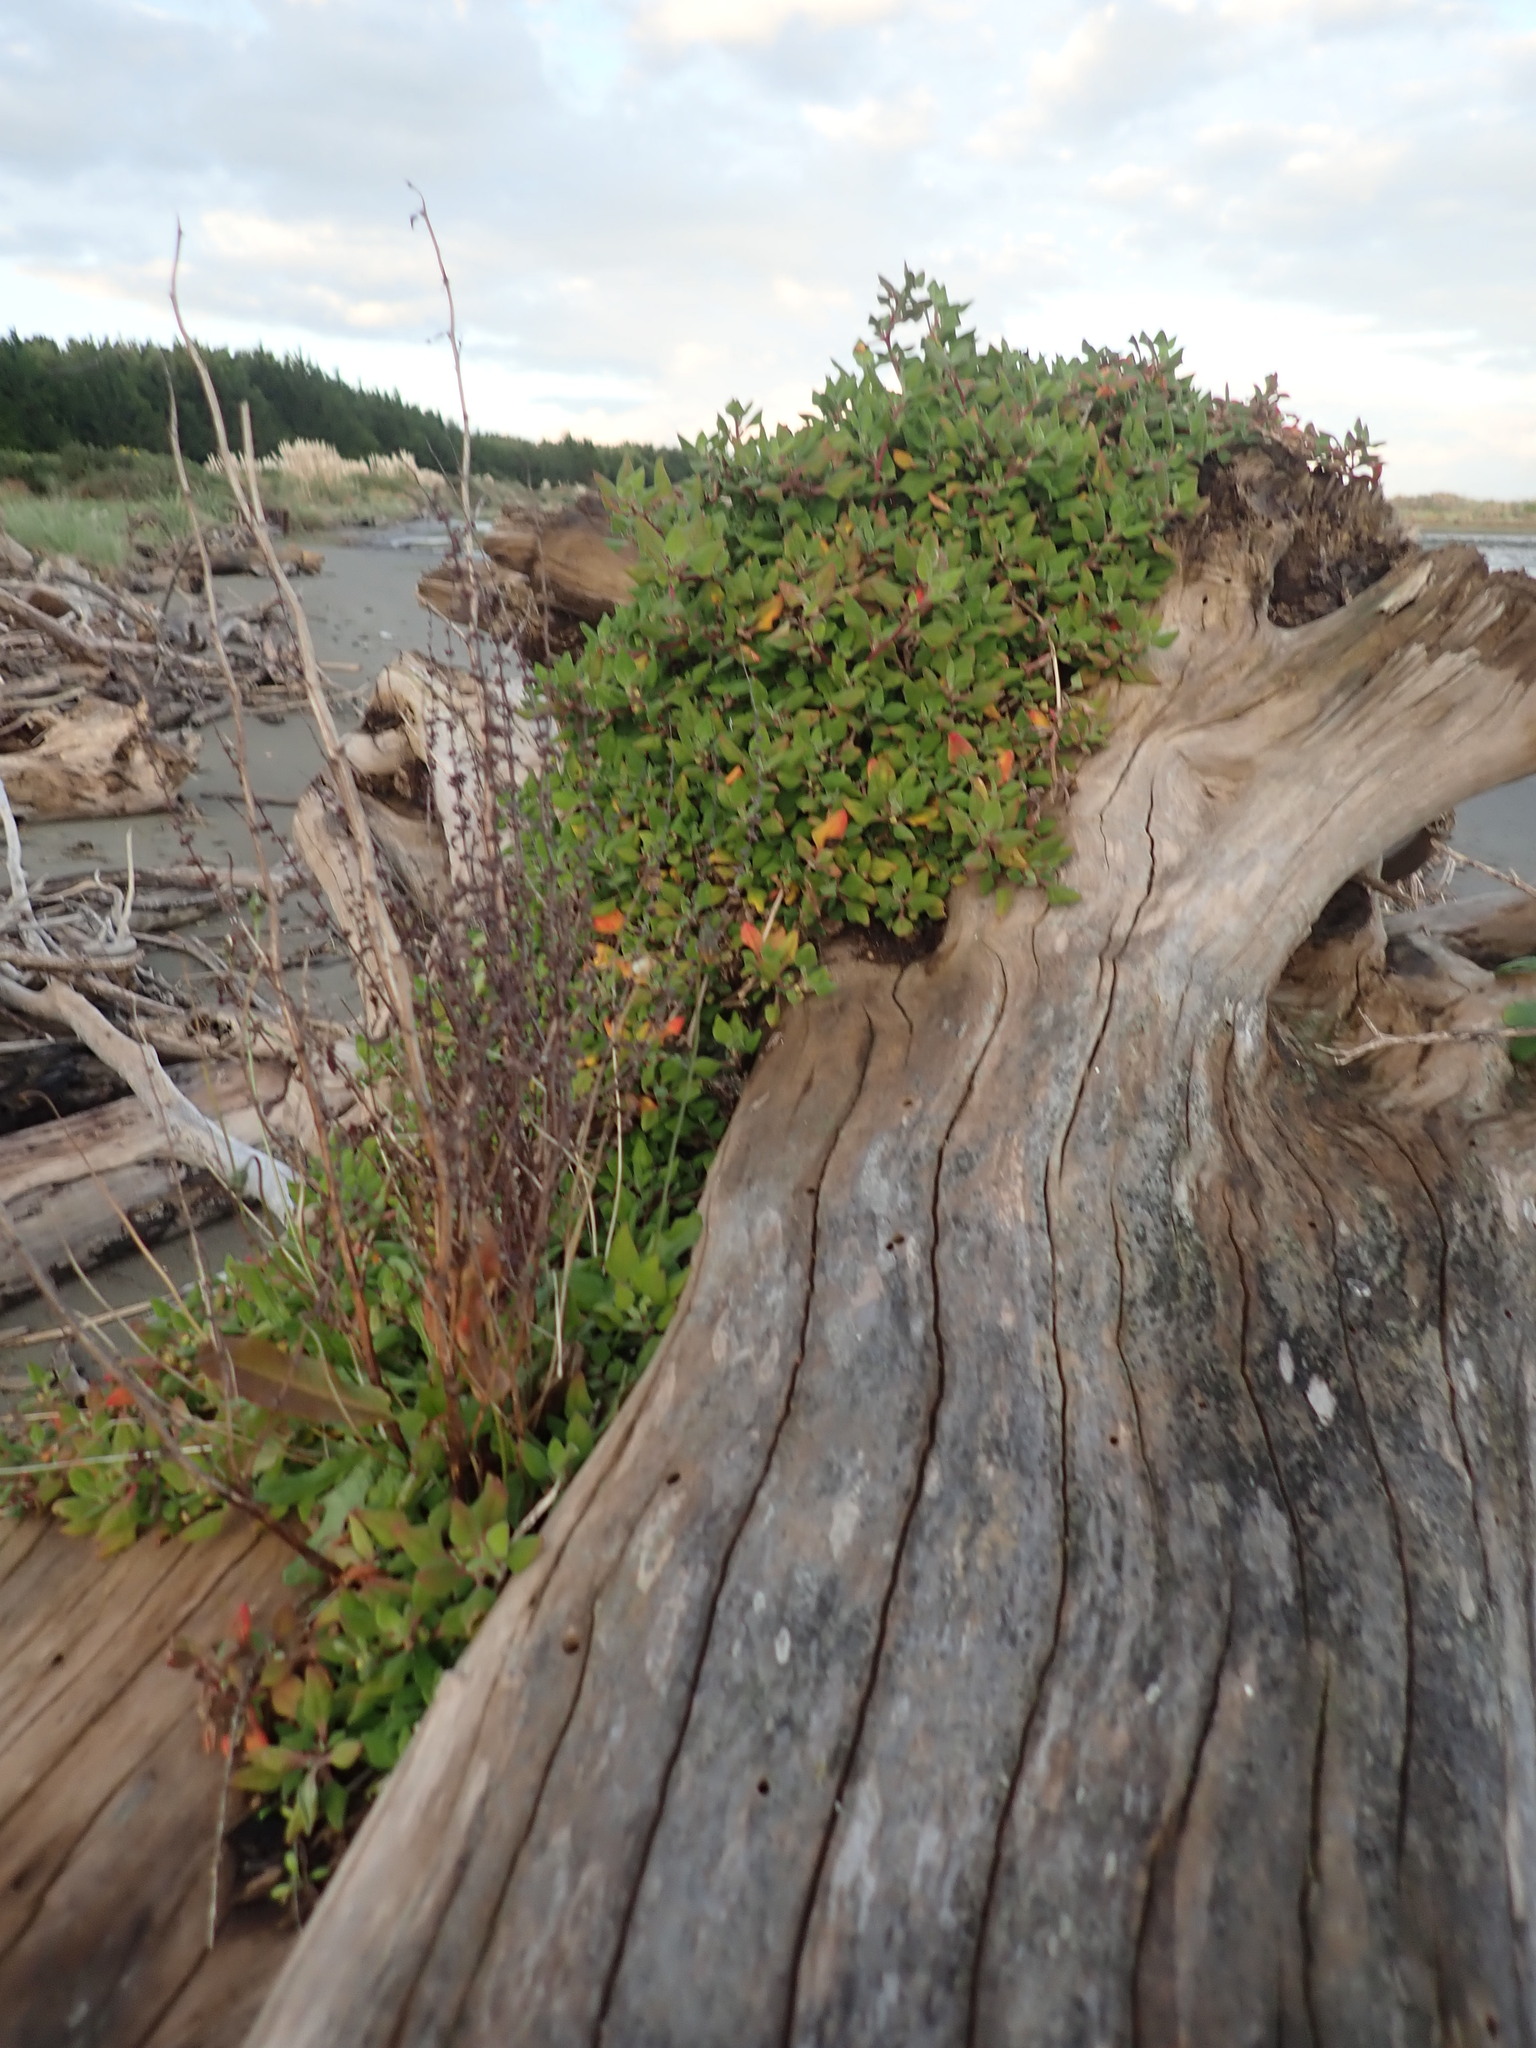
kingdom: Plantae
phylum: Tracheophyta
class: Magnoliopsida
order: Caryophyllales
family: Aizoaceae
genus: Tetragonia
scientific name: Tetragonia implexicoma
